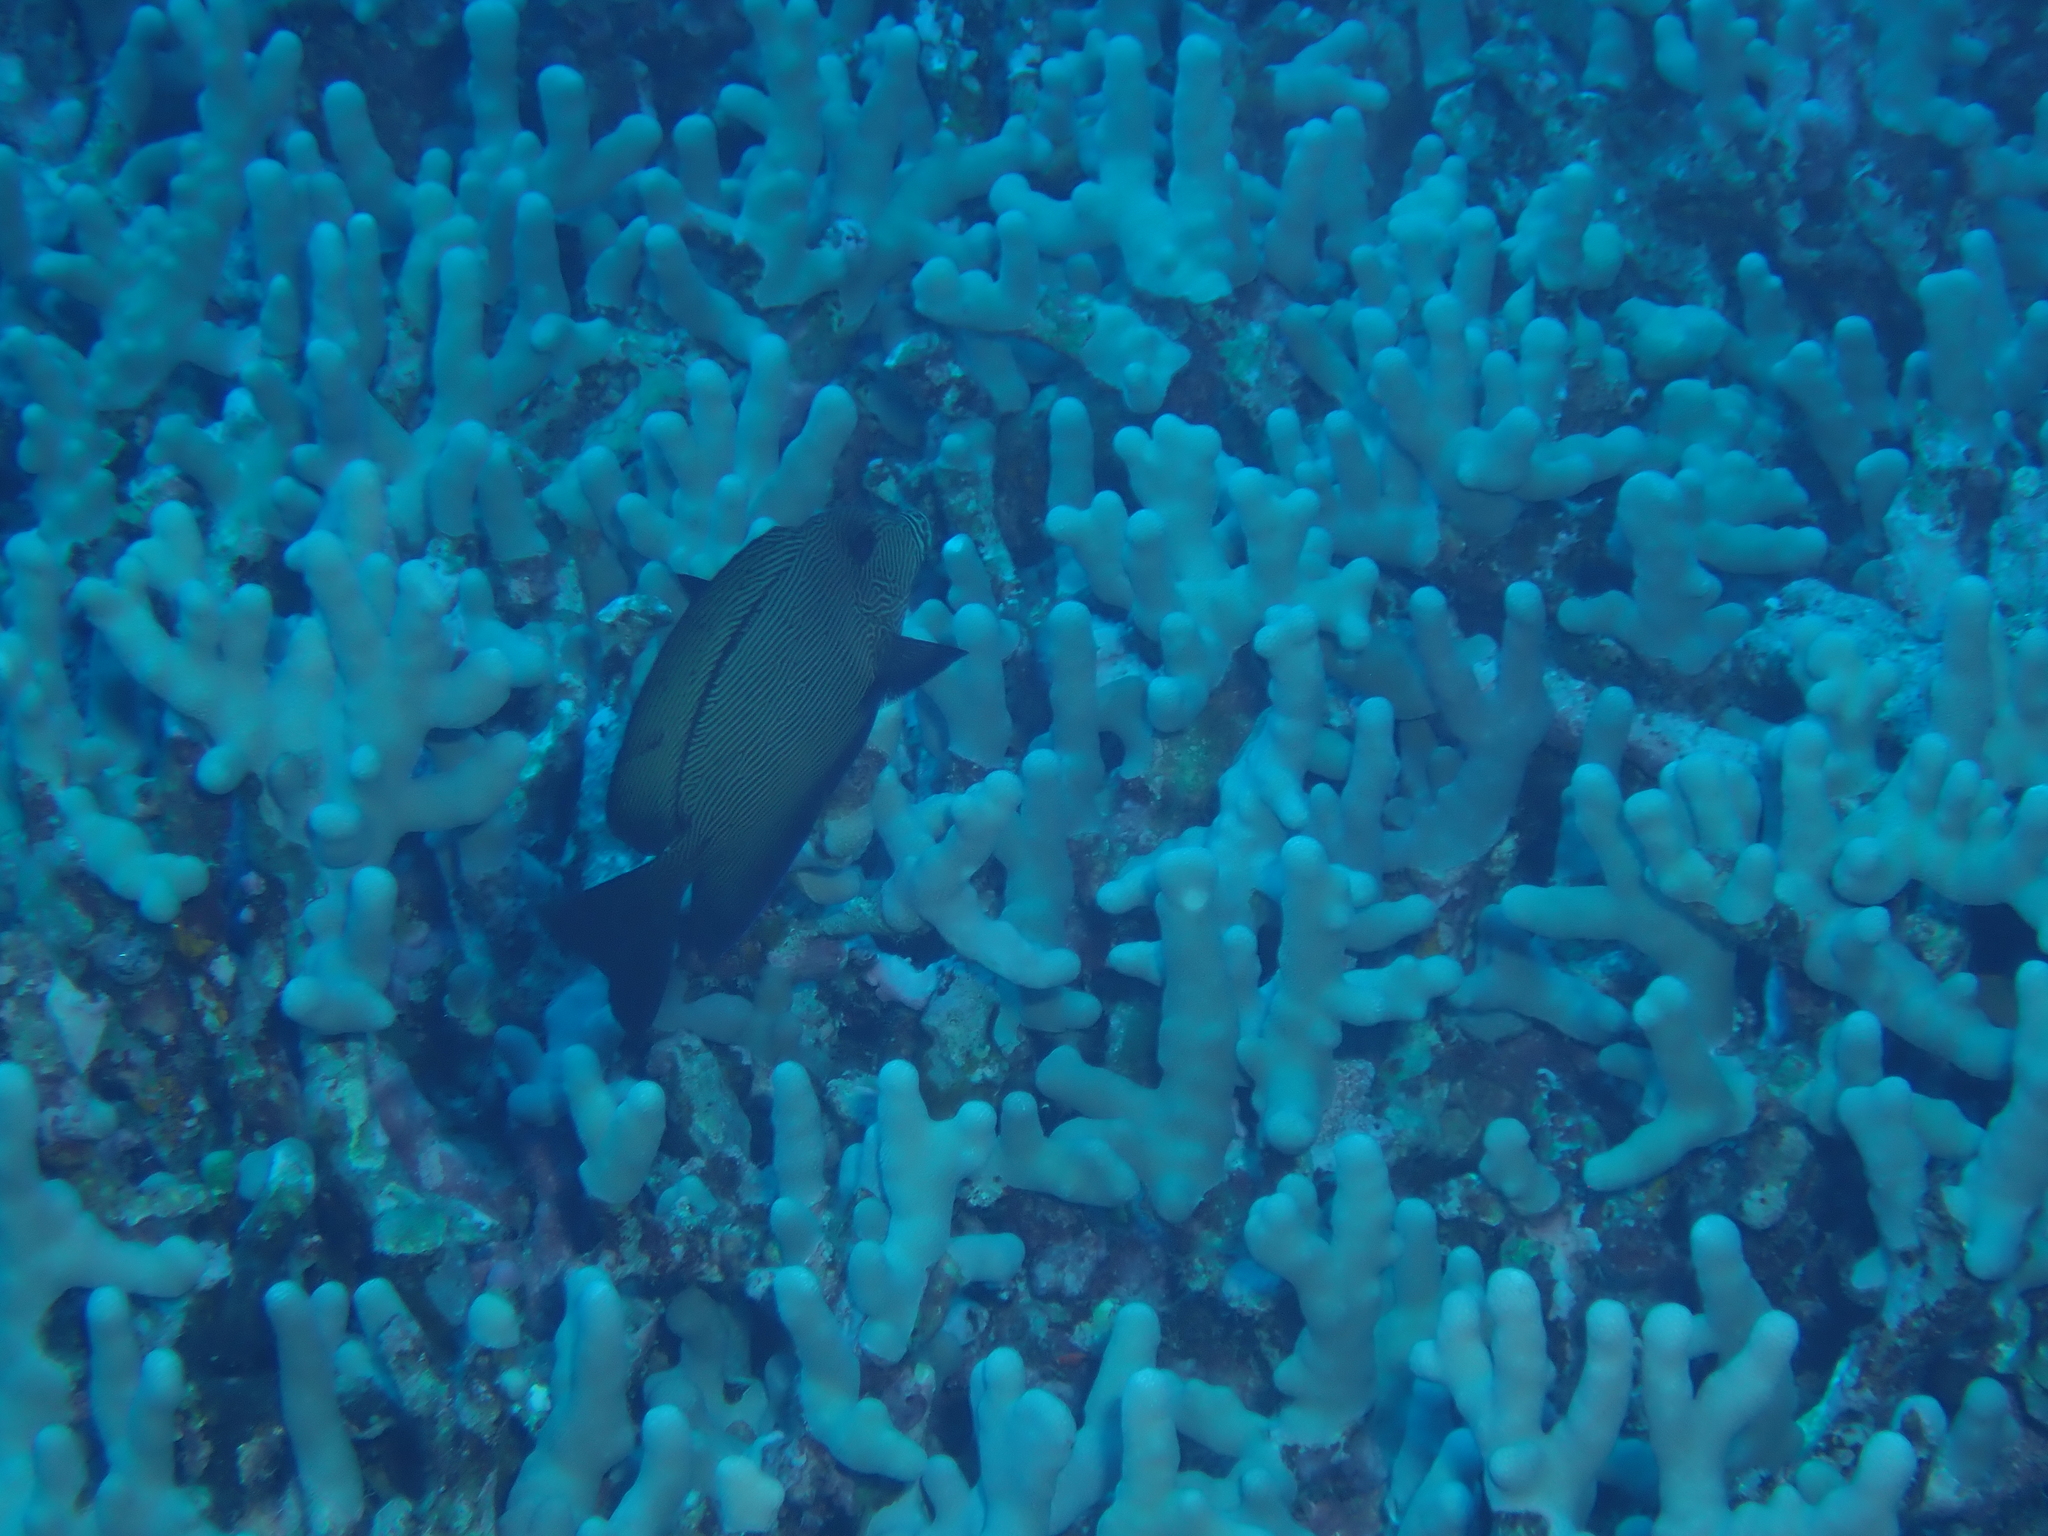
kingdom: Animalia
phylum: Chordata
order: Perciformes
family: Acanthuridae
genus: Ctenochaetus
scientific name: Ctenochaetus hawaiiensis
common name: Hawaiian surgeonfish
